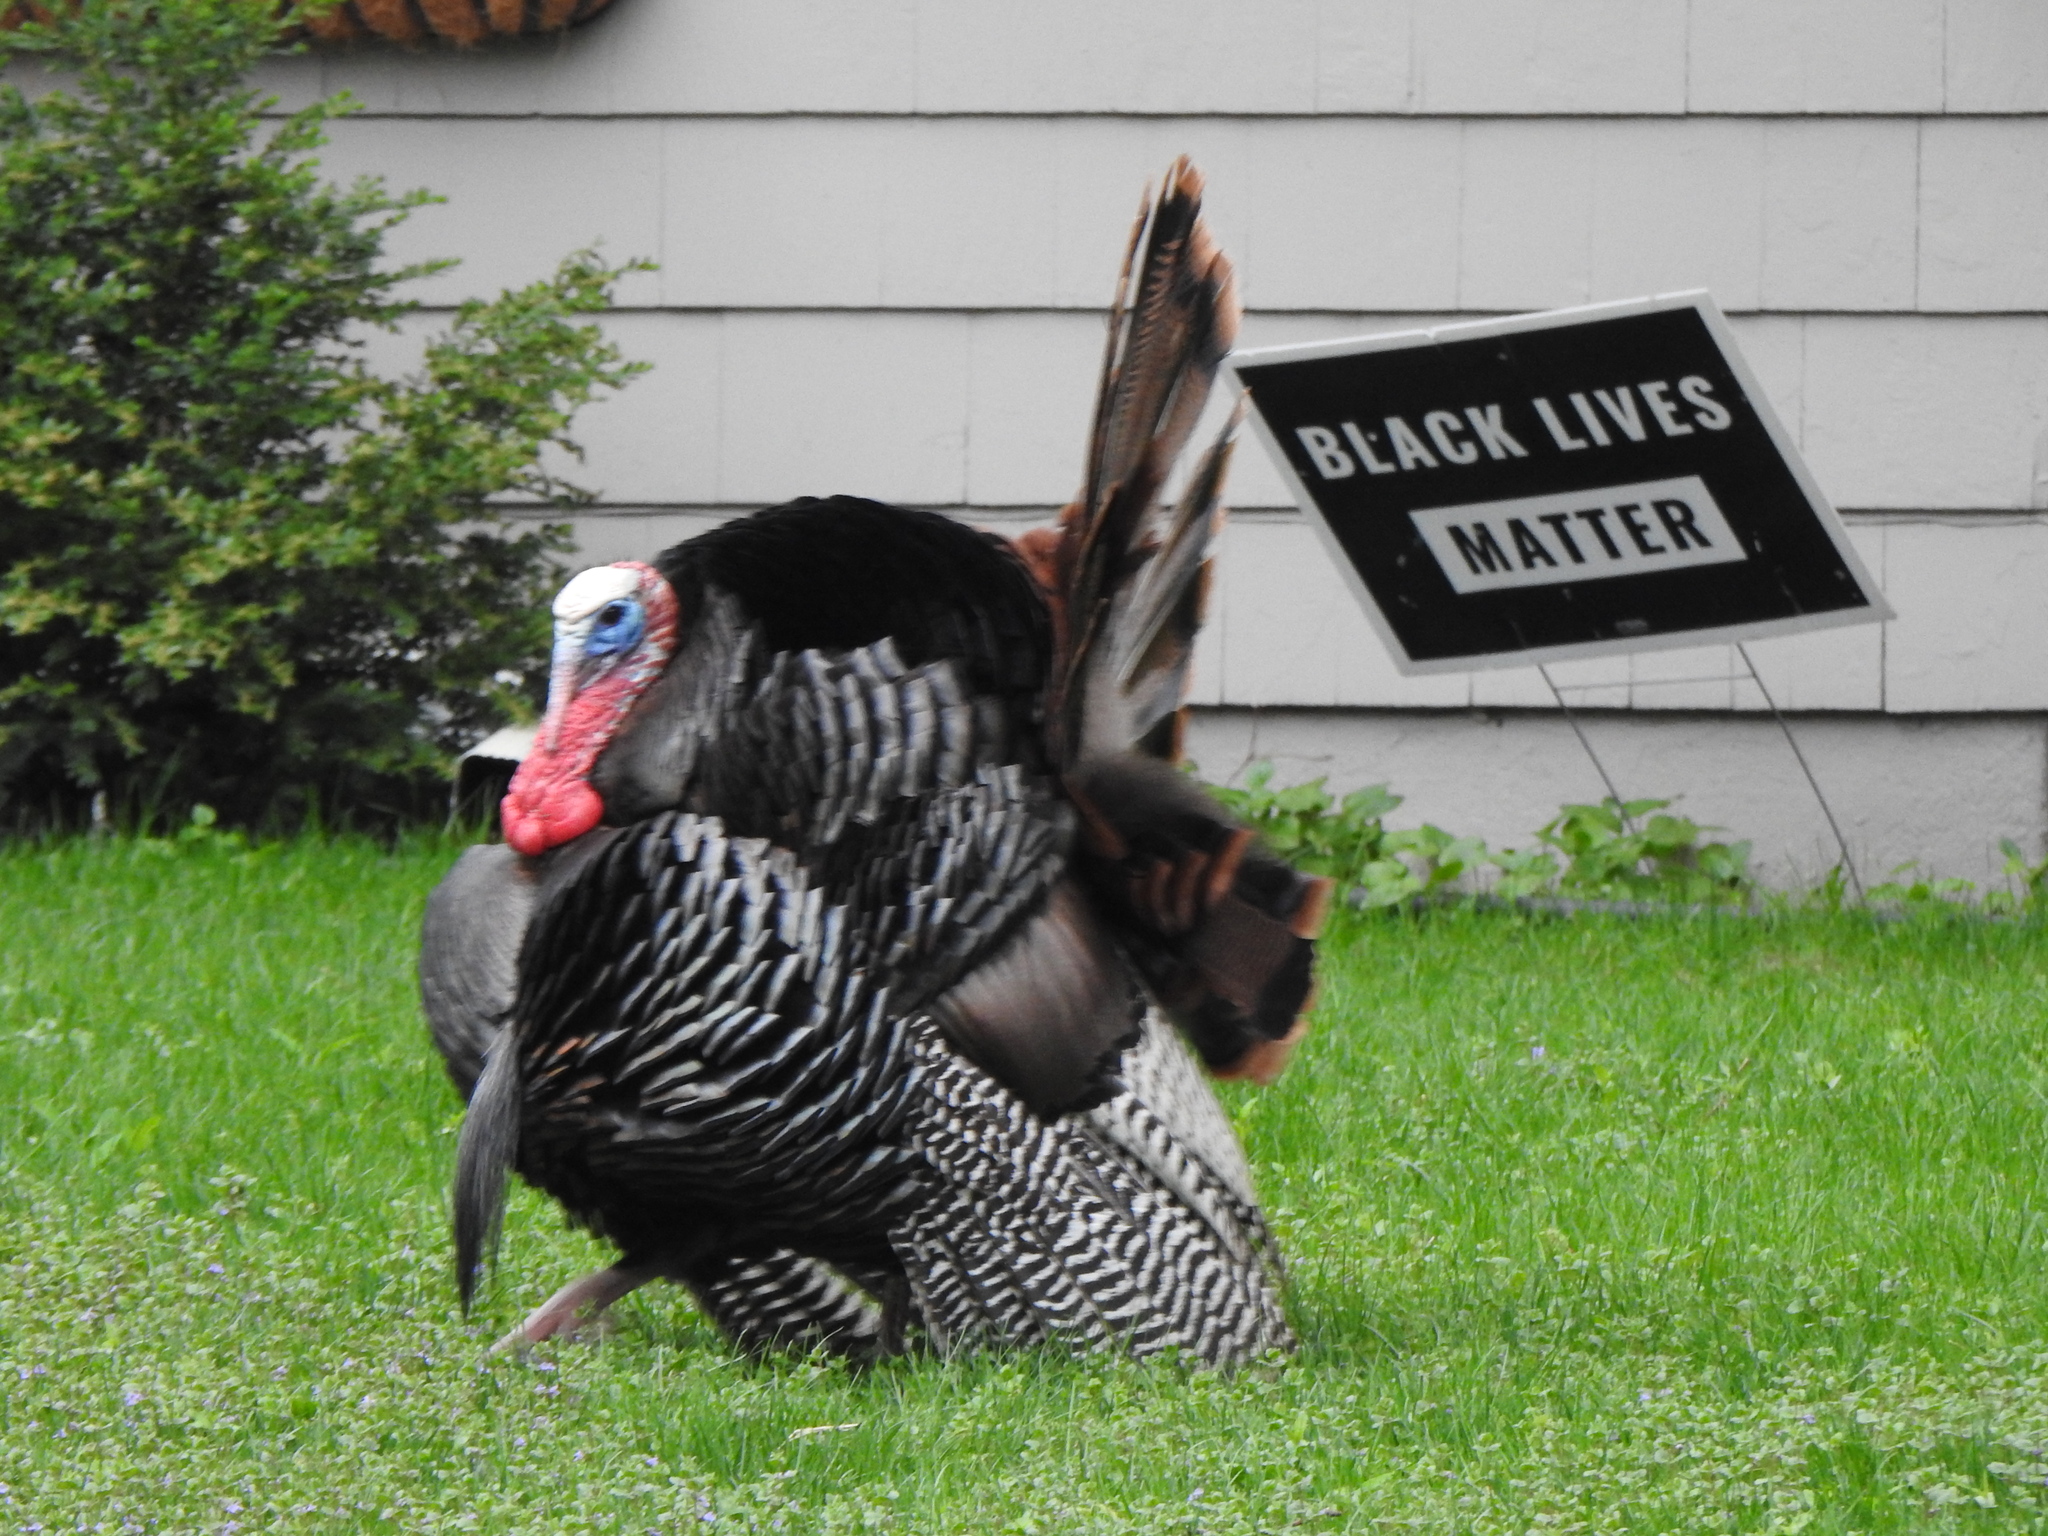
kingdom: Animalia
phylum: Chordata
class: Aves
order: Galliformes
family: Phasianidae
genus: Meleagris
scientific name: Meleagris gallopavo
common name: Wild turkey
